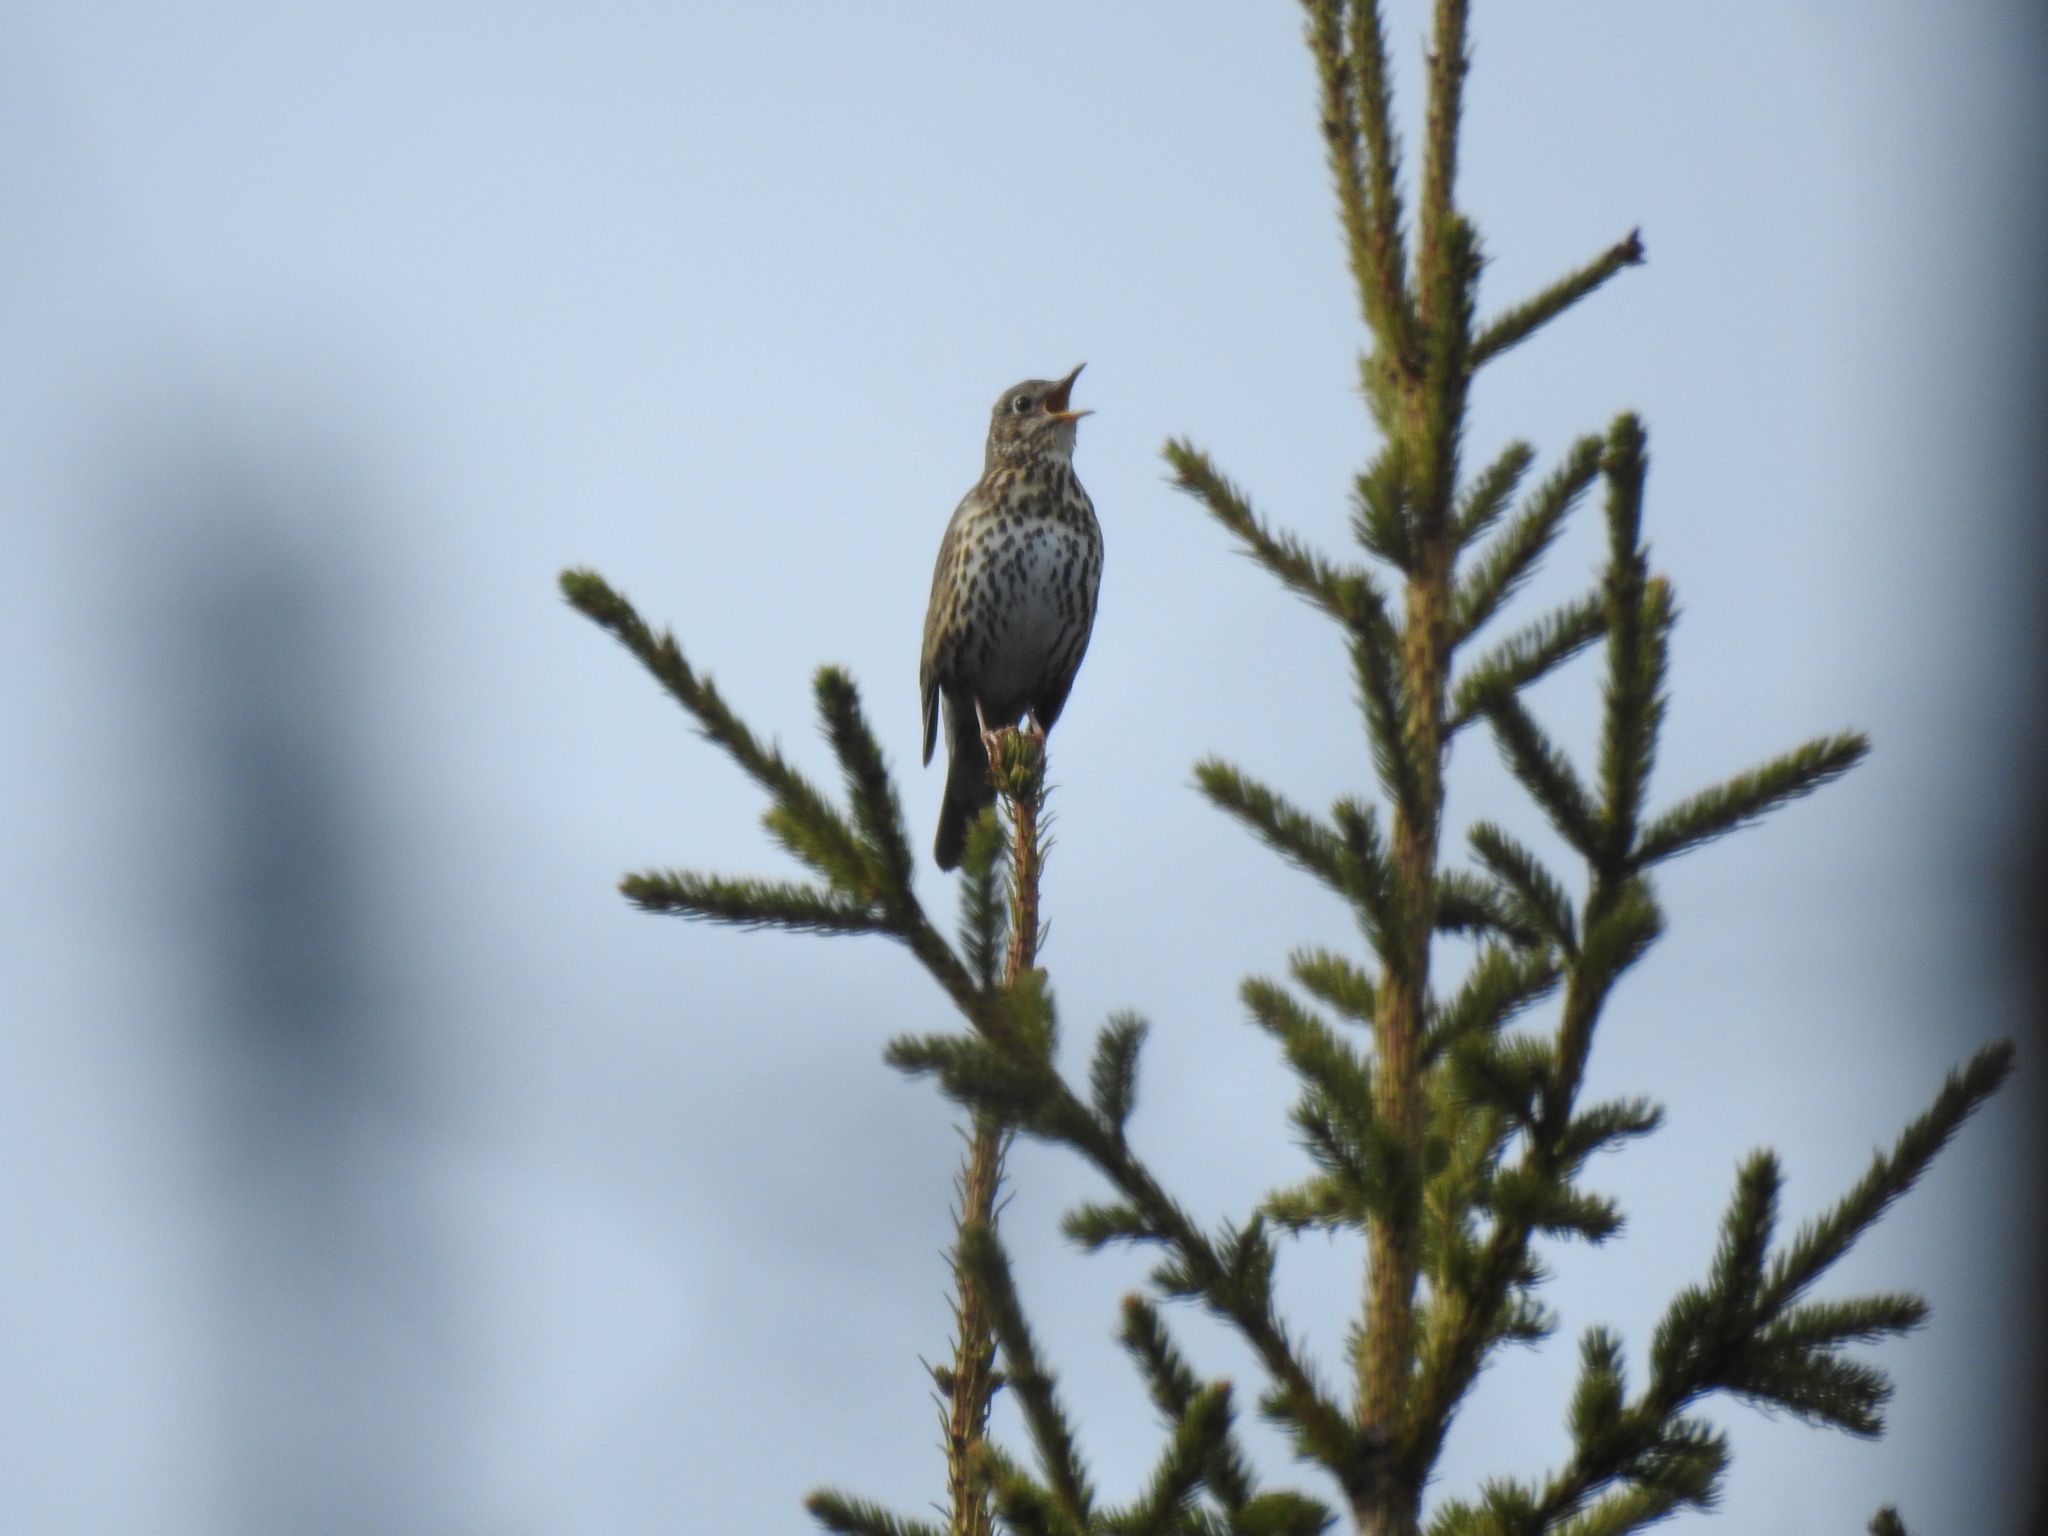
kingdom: Animalia
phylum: Chordata
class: Aves
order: Passeriformes
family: Turdidae
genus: Turdus
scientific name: Turdus philomelos
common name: Song thrush
